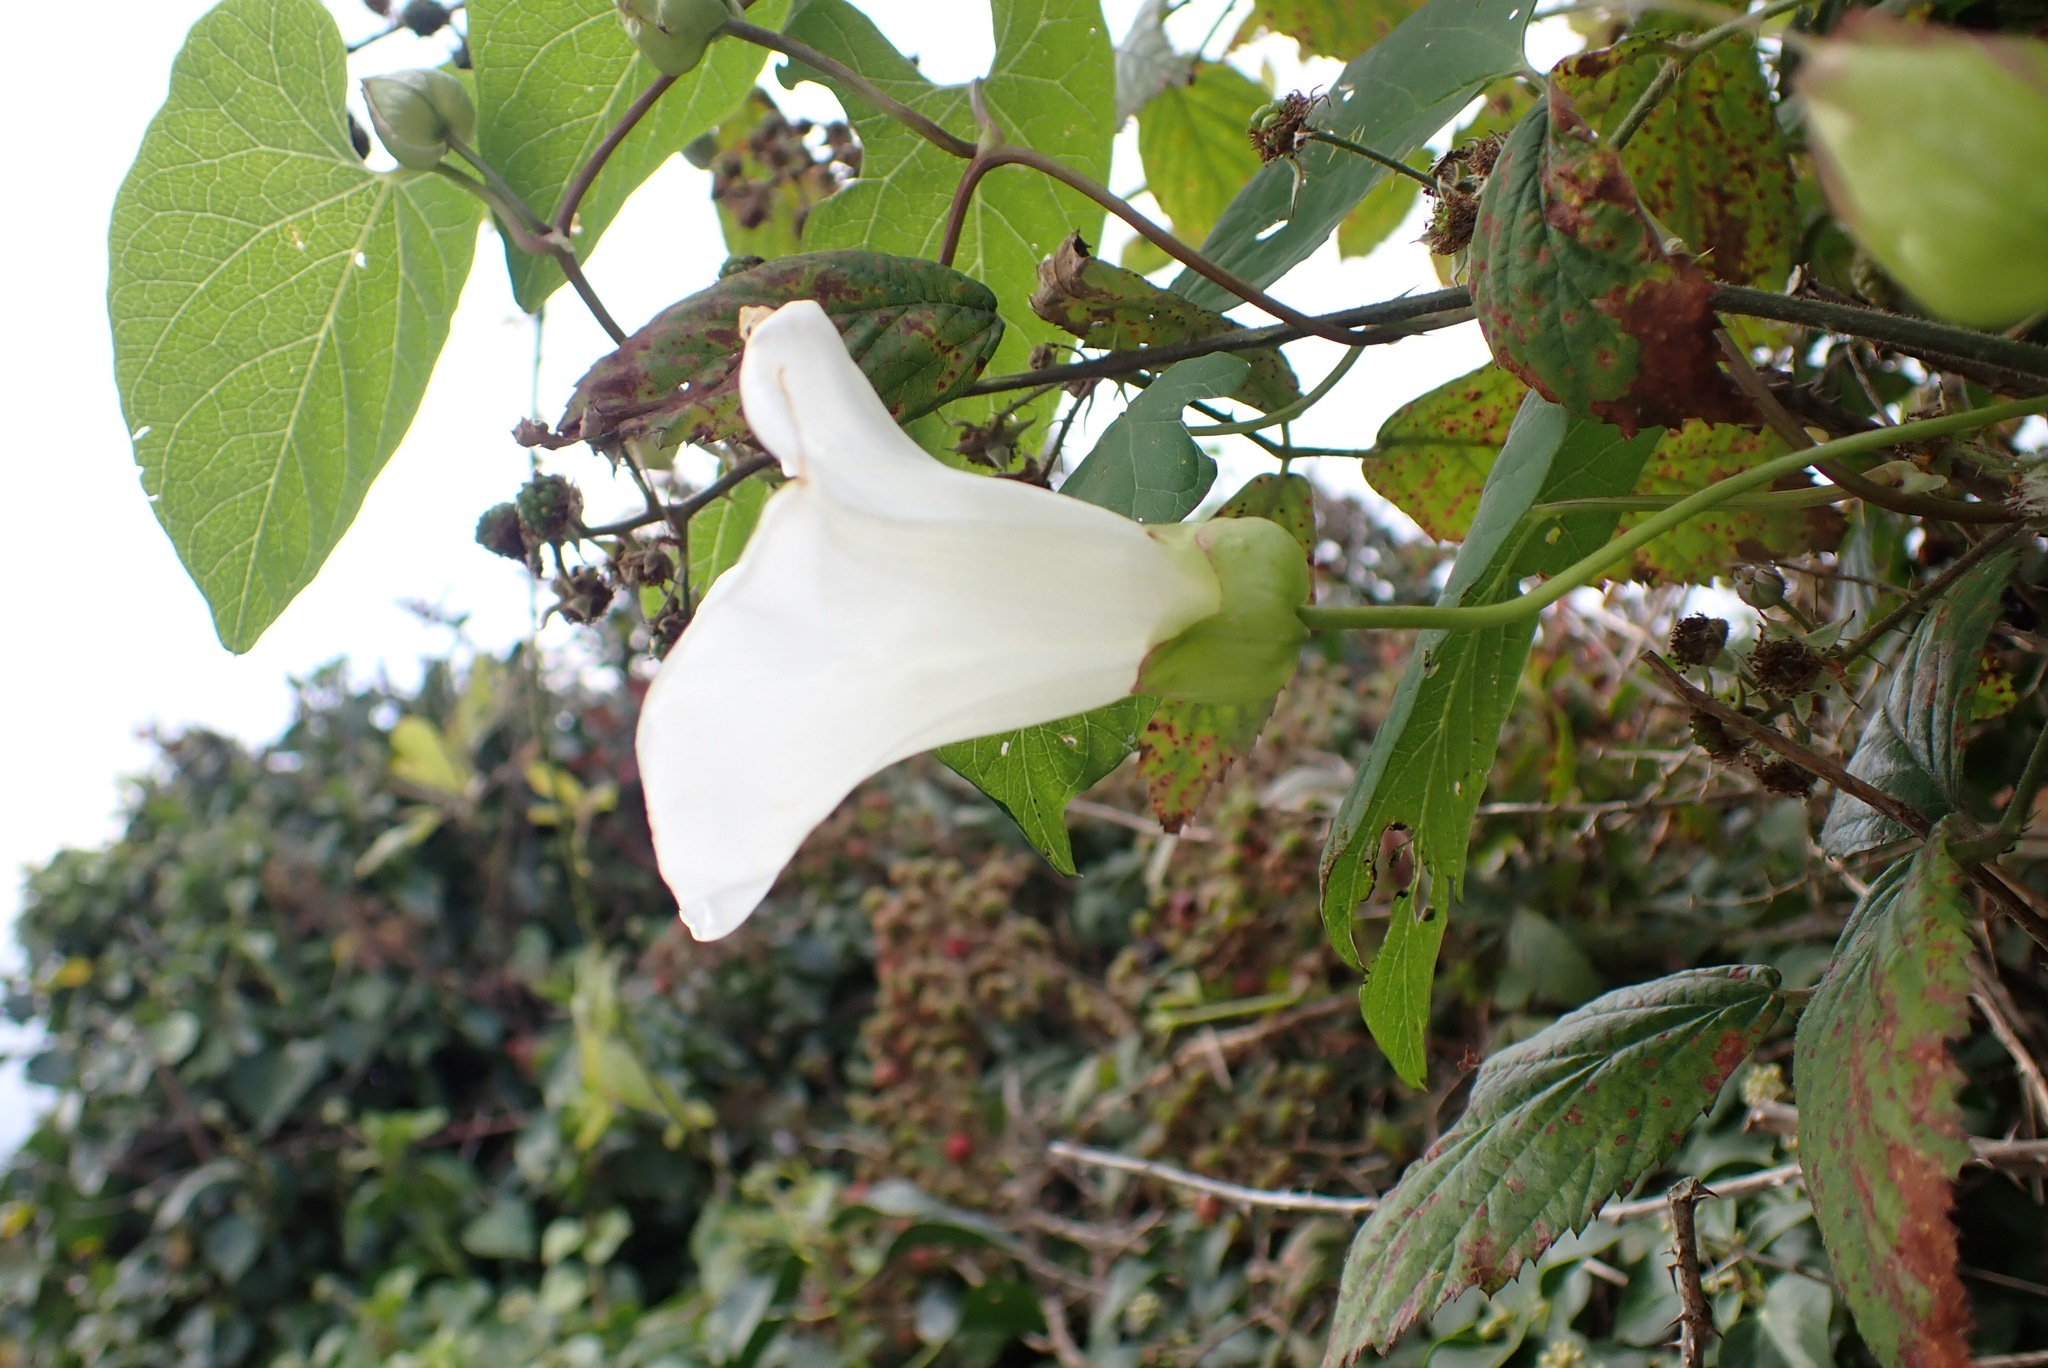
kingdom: Plantae
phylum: Tracheophyta
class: Magnoliopsida
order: Solanales
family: Convolvulaceae
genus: Calystegia
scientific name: Calystegia silvatica
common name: Large bindweed
